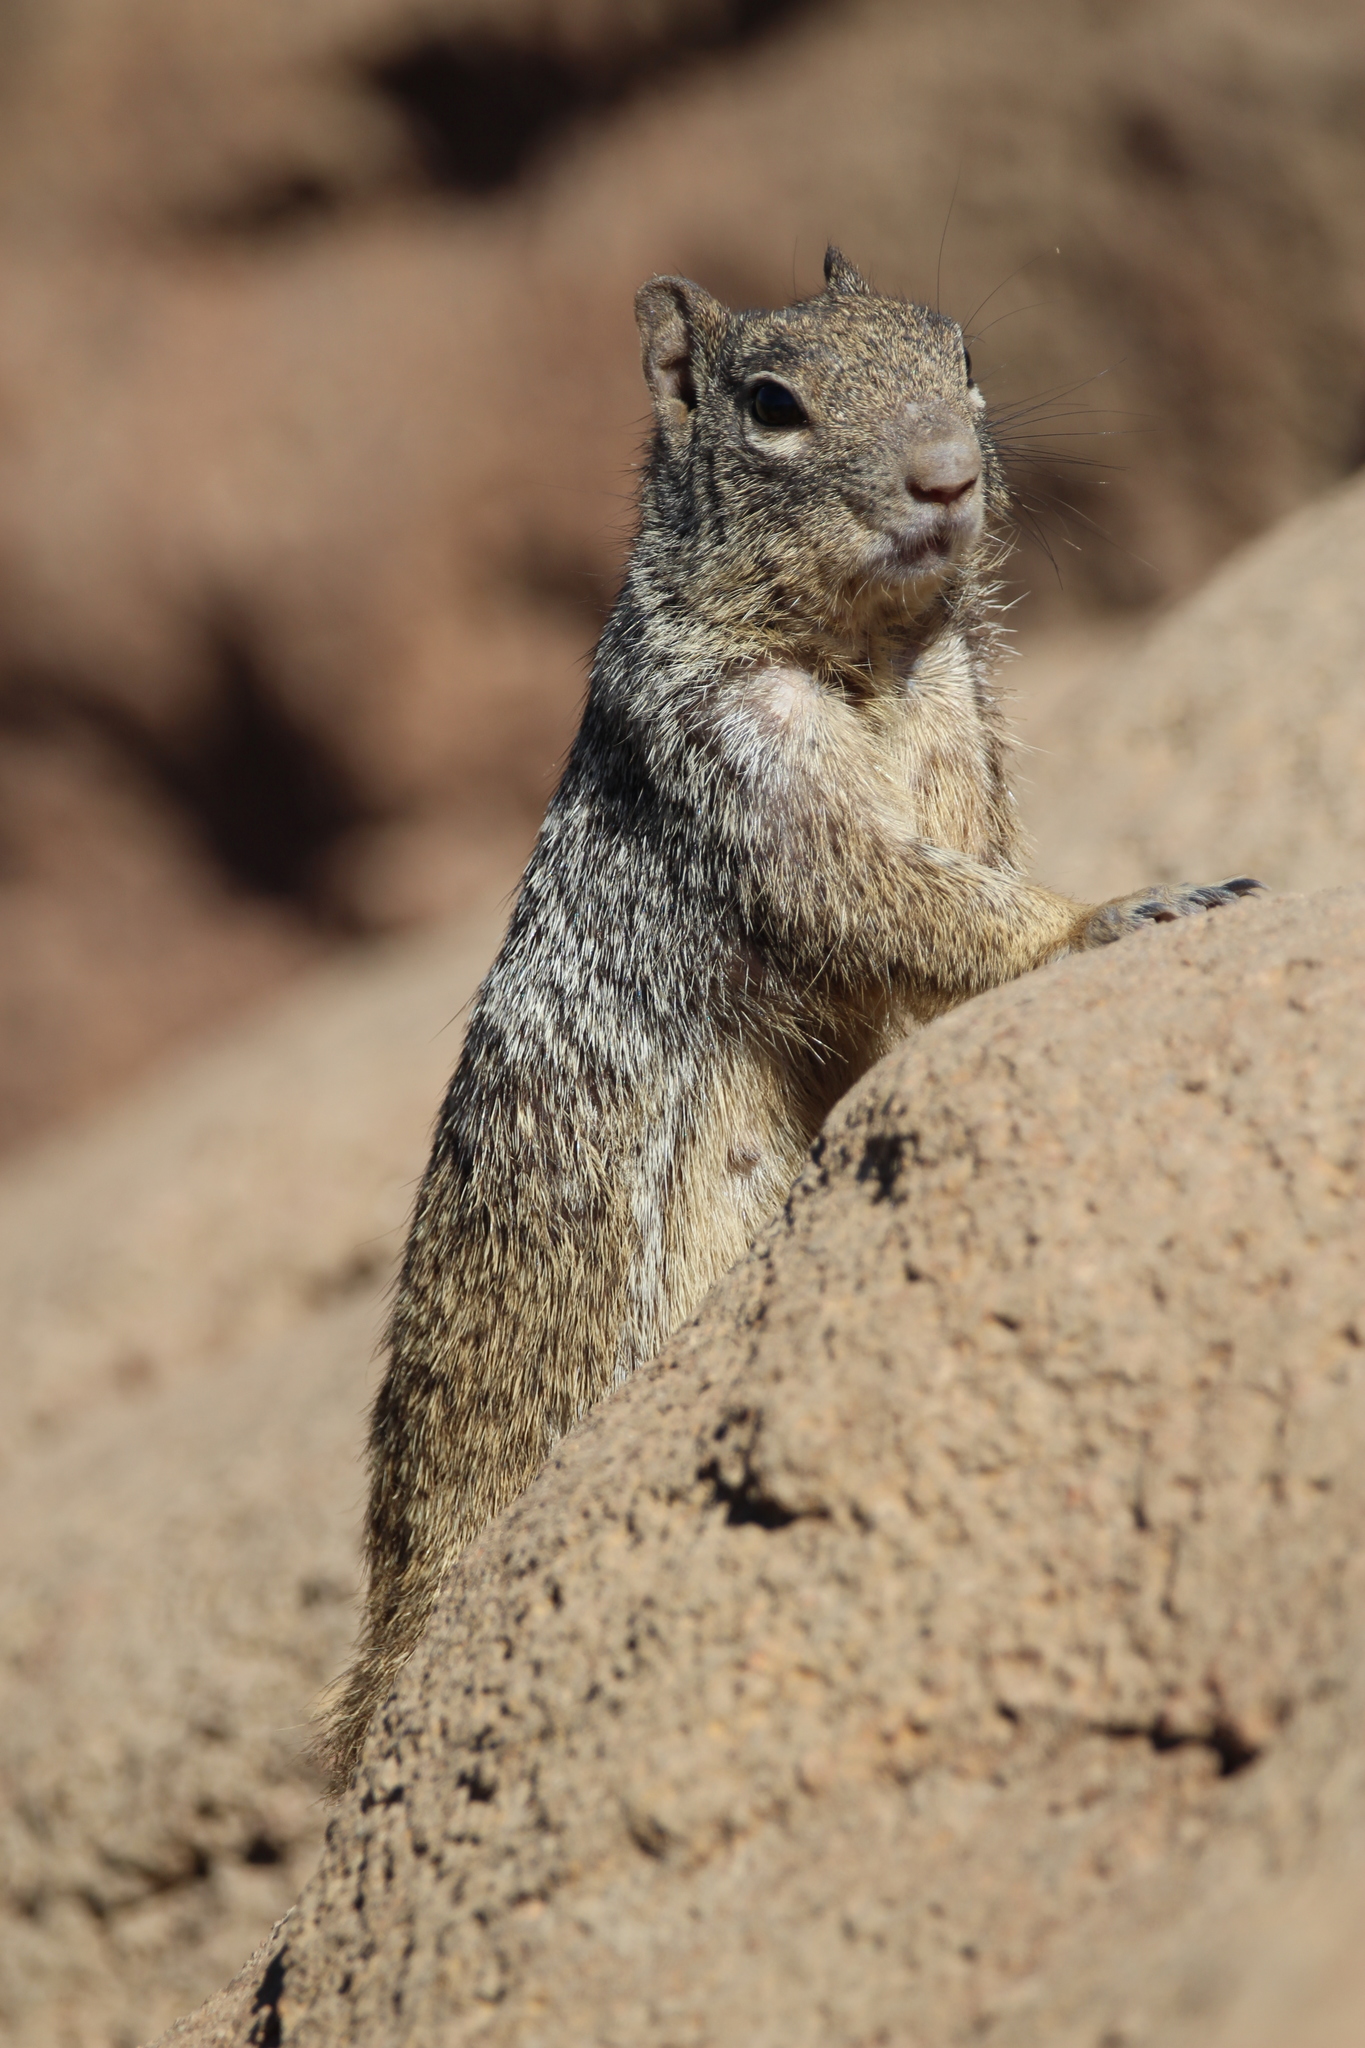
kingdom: Animalia
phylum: Chordata
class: Mammalia
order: Rodentia
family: Sciuridae
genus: Otospermophilus
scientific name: Otospermophilus variegatus
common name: Rock squirrel
